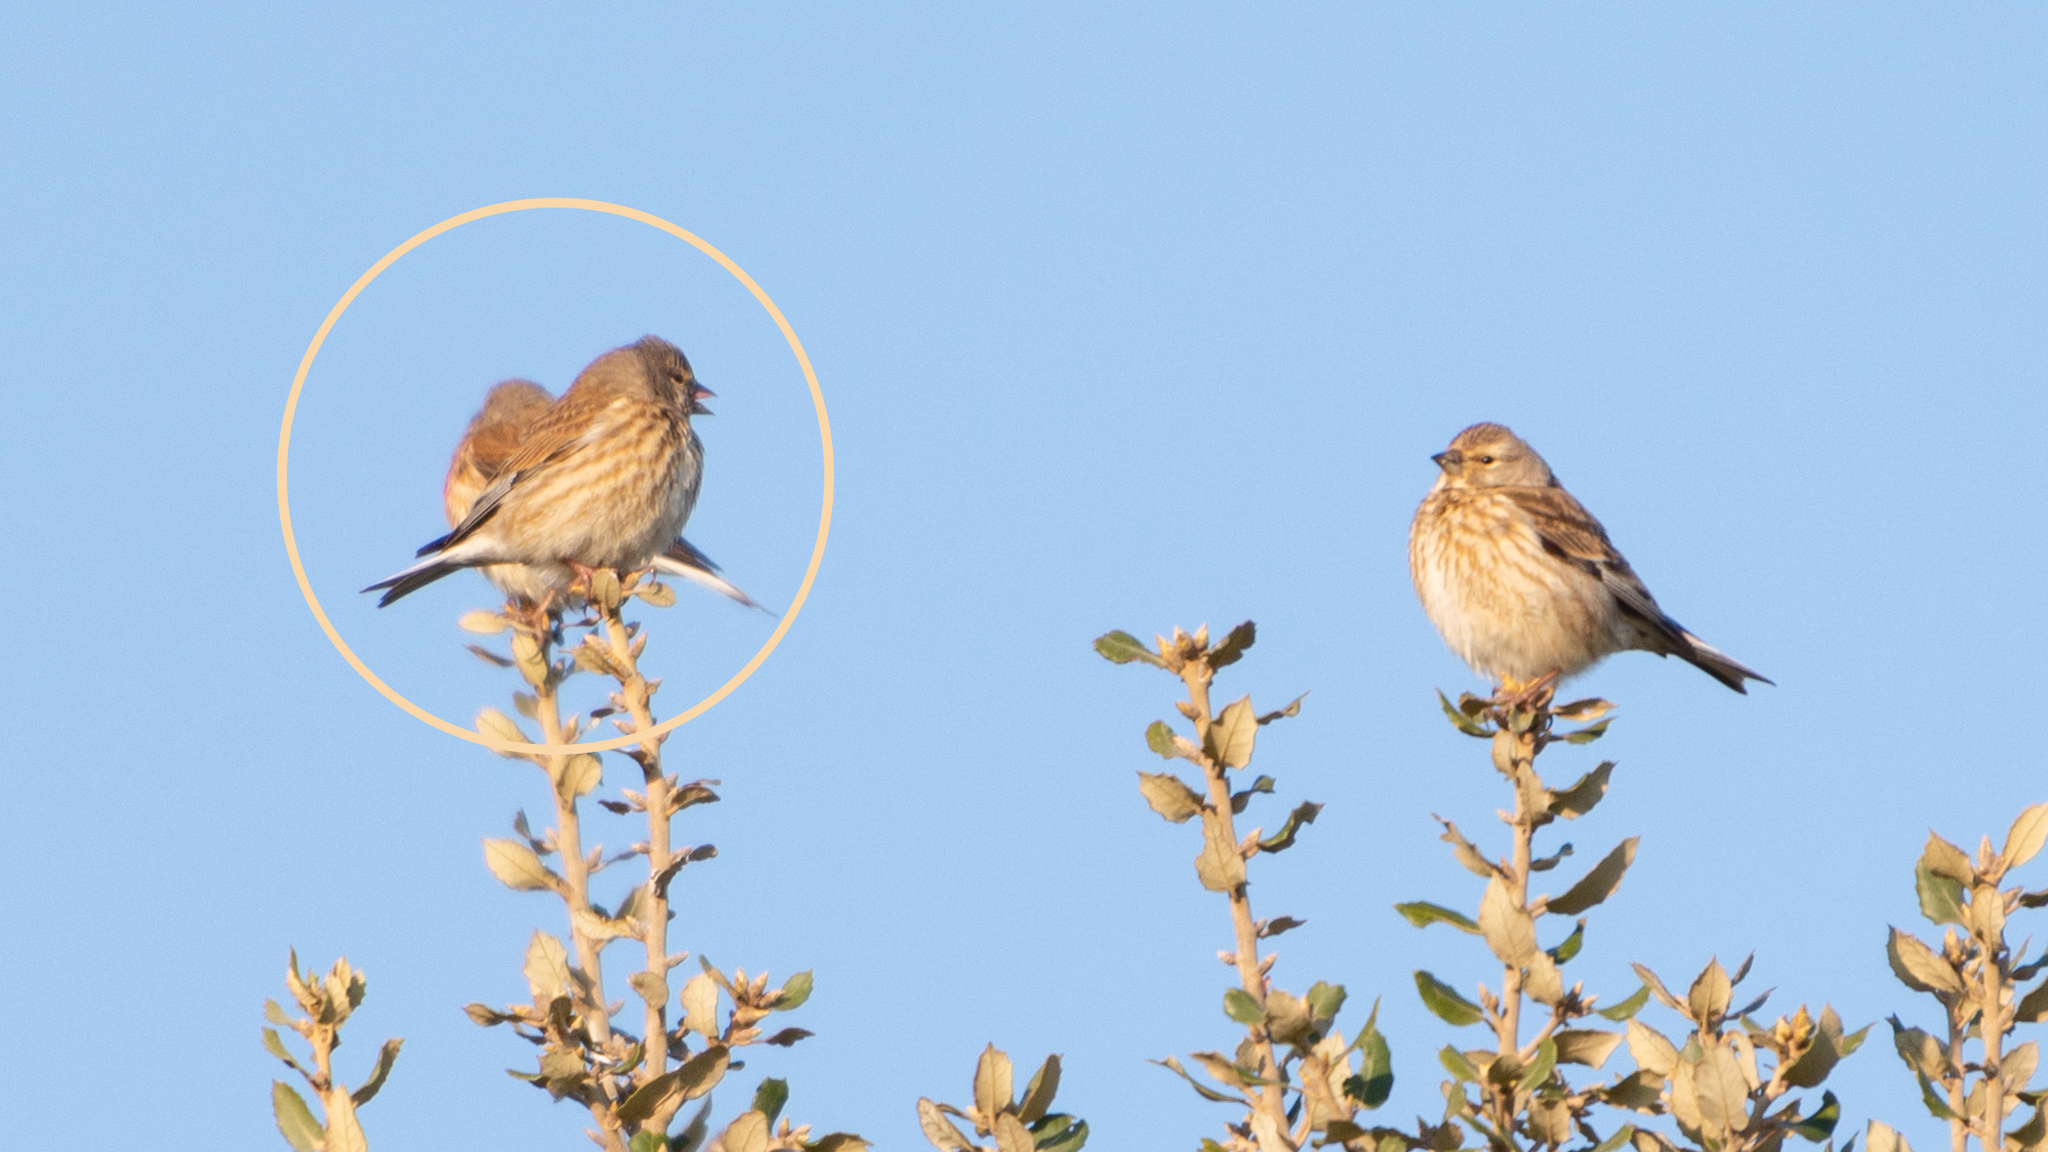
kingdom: Animalia
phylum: Chordata
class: Aves
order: Passeriformes
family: Fringillidae
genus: Linaria
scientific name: Linaria cannabina
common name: Common linnet
